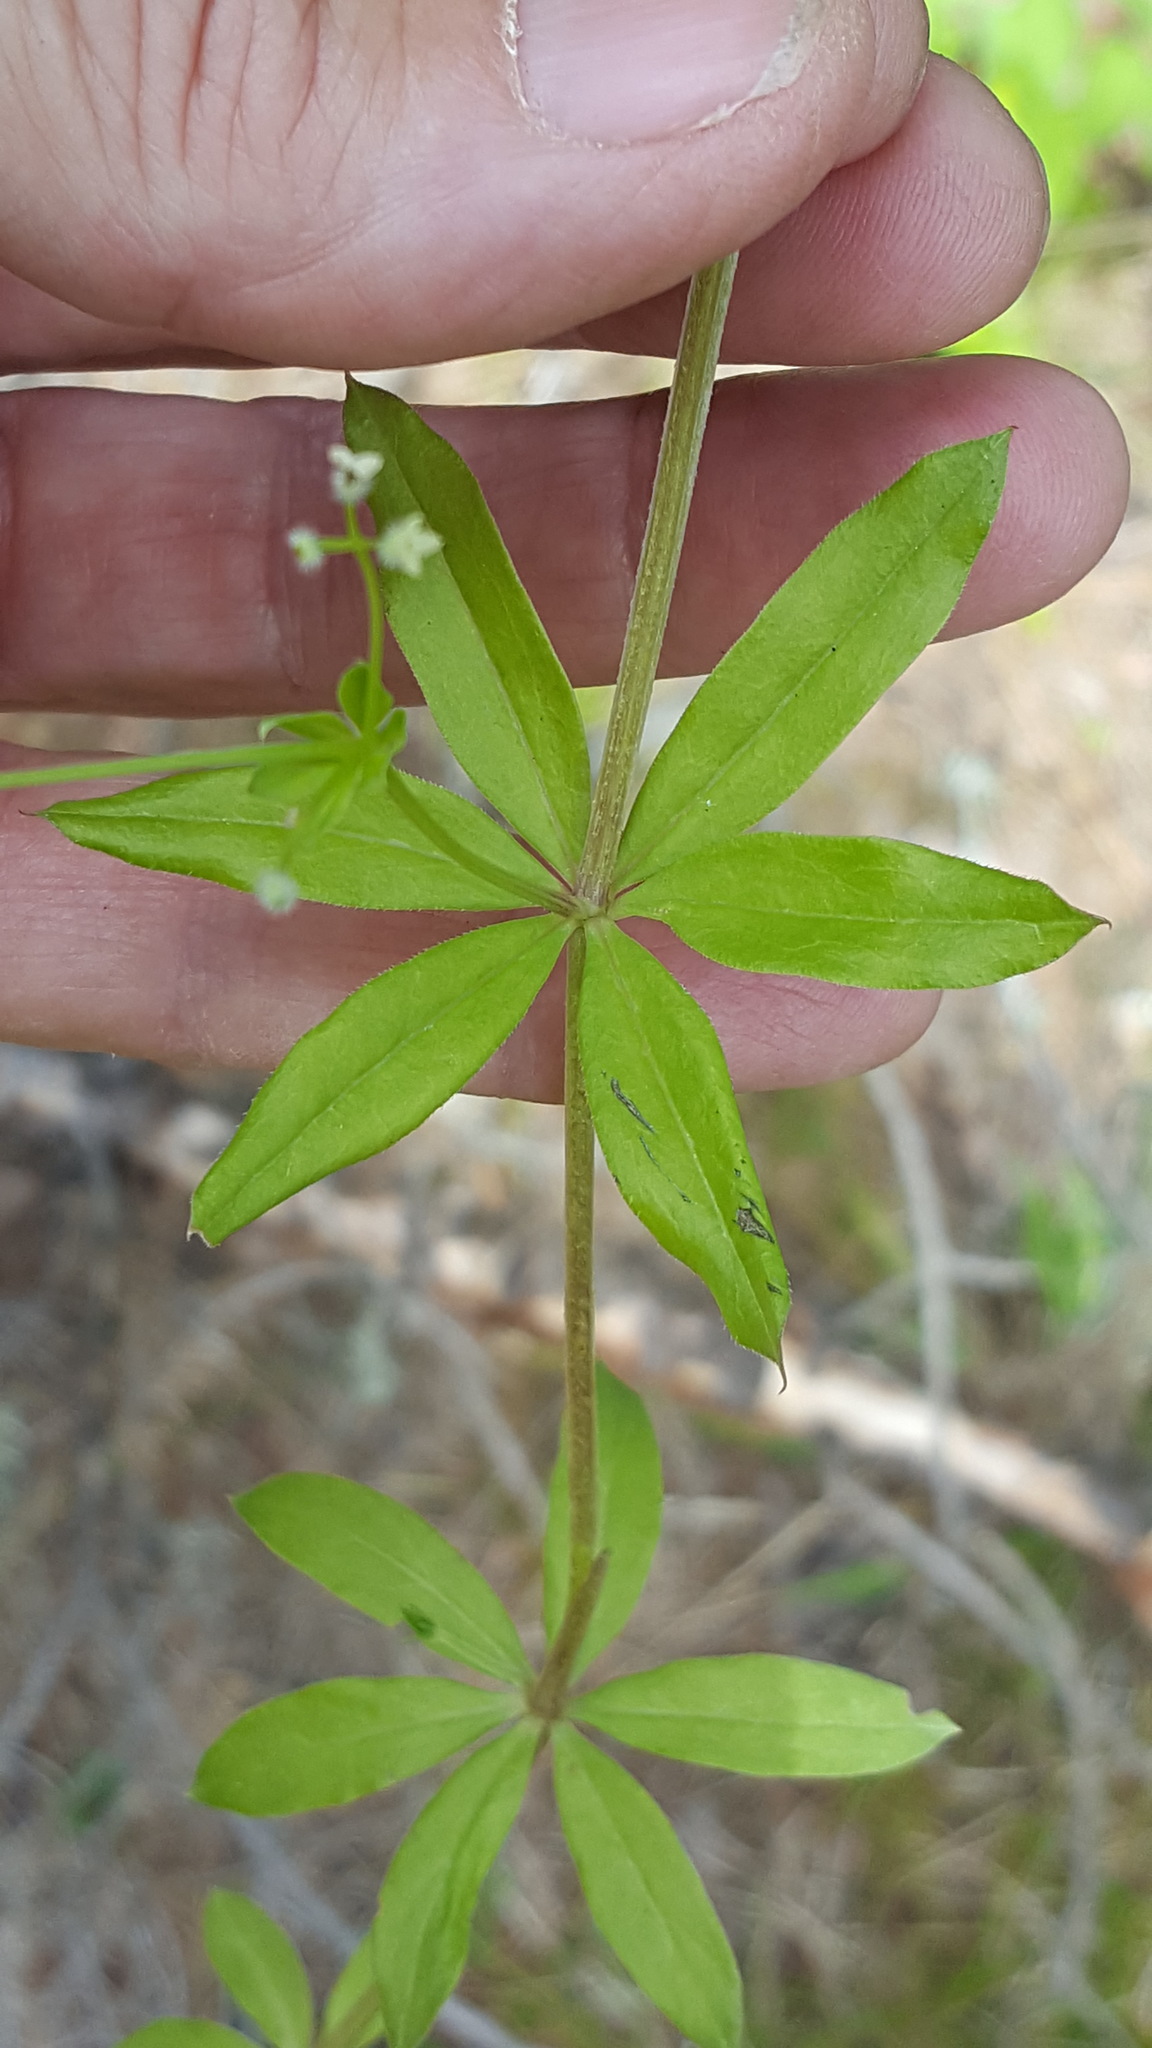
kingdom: Plantae
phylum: Tracheophyta
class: Magnoliopsida
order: Gentianales
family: Rubiaceae
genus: Galium
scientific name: Galium triflorum
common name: Fragrant bedstraw
